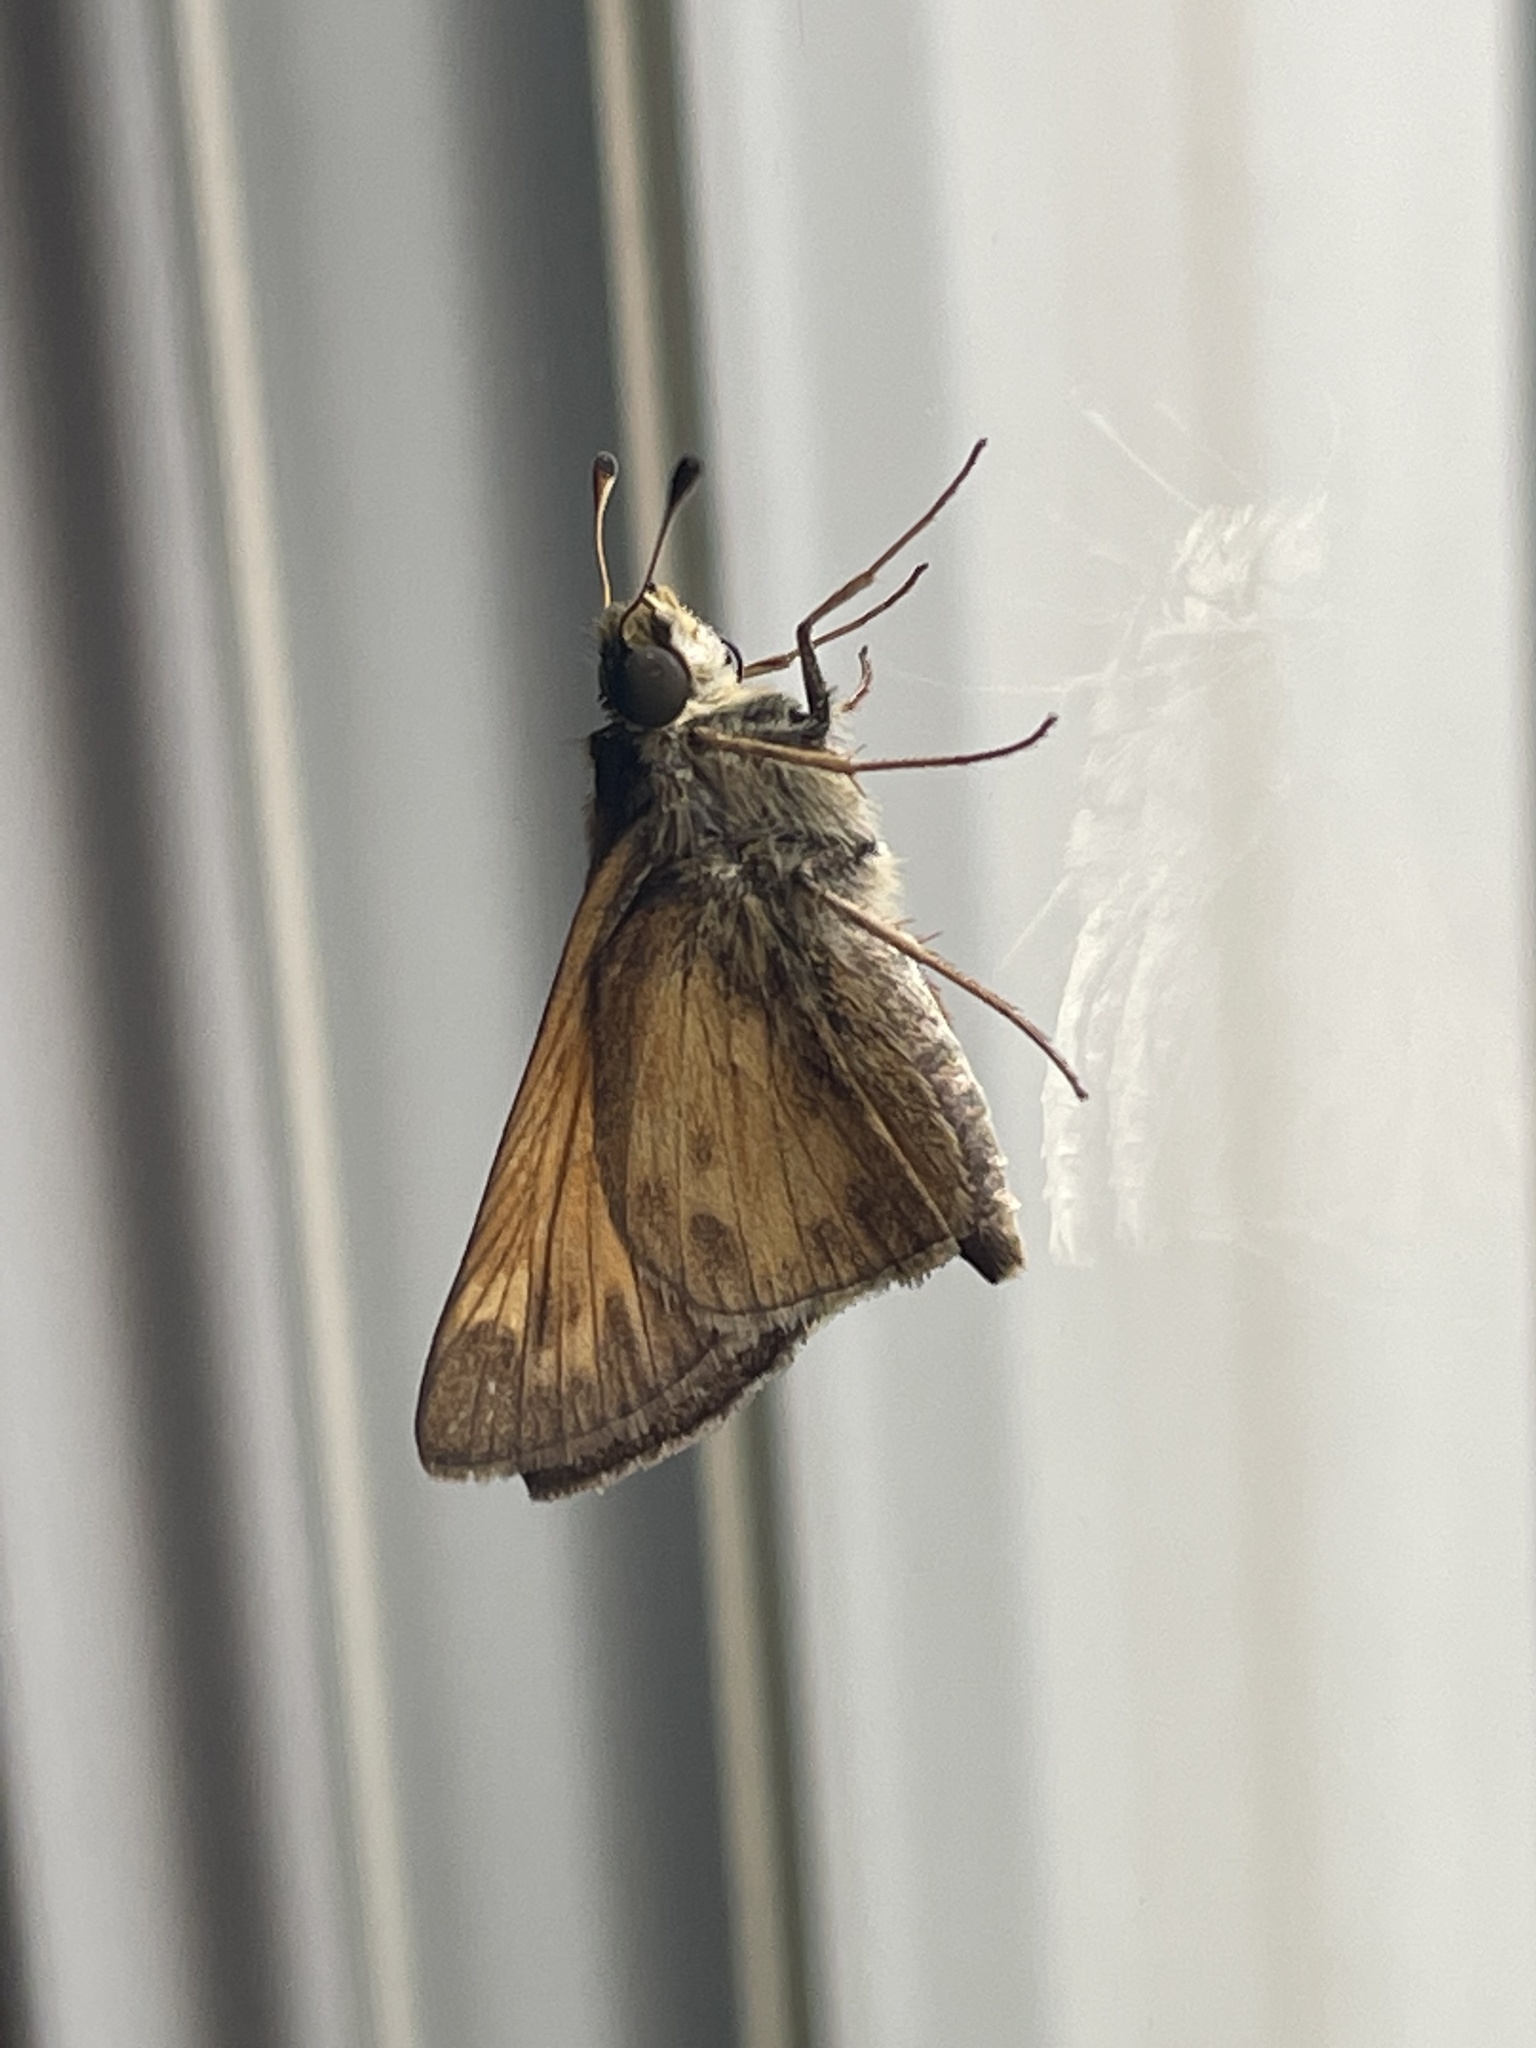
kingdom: Animalia
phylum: Arthropoda
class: Insecta
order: Lepidoptera
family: Hesperiidae
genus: Atalopedes
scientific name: Atalopedes
